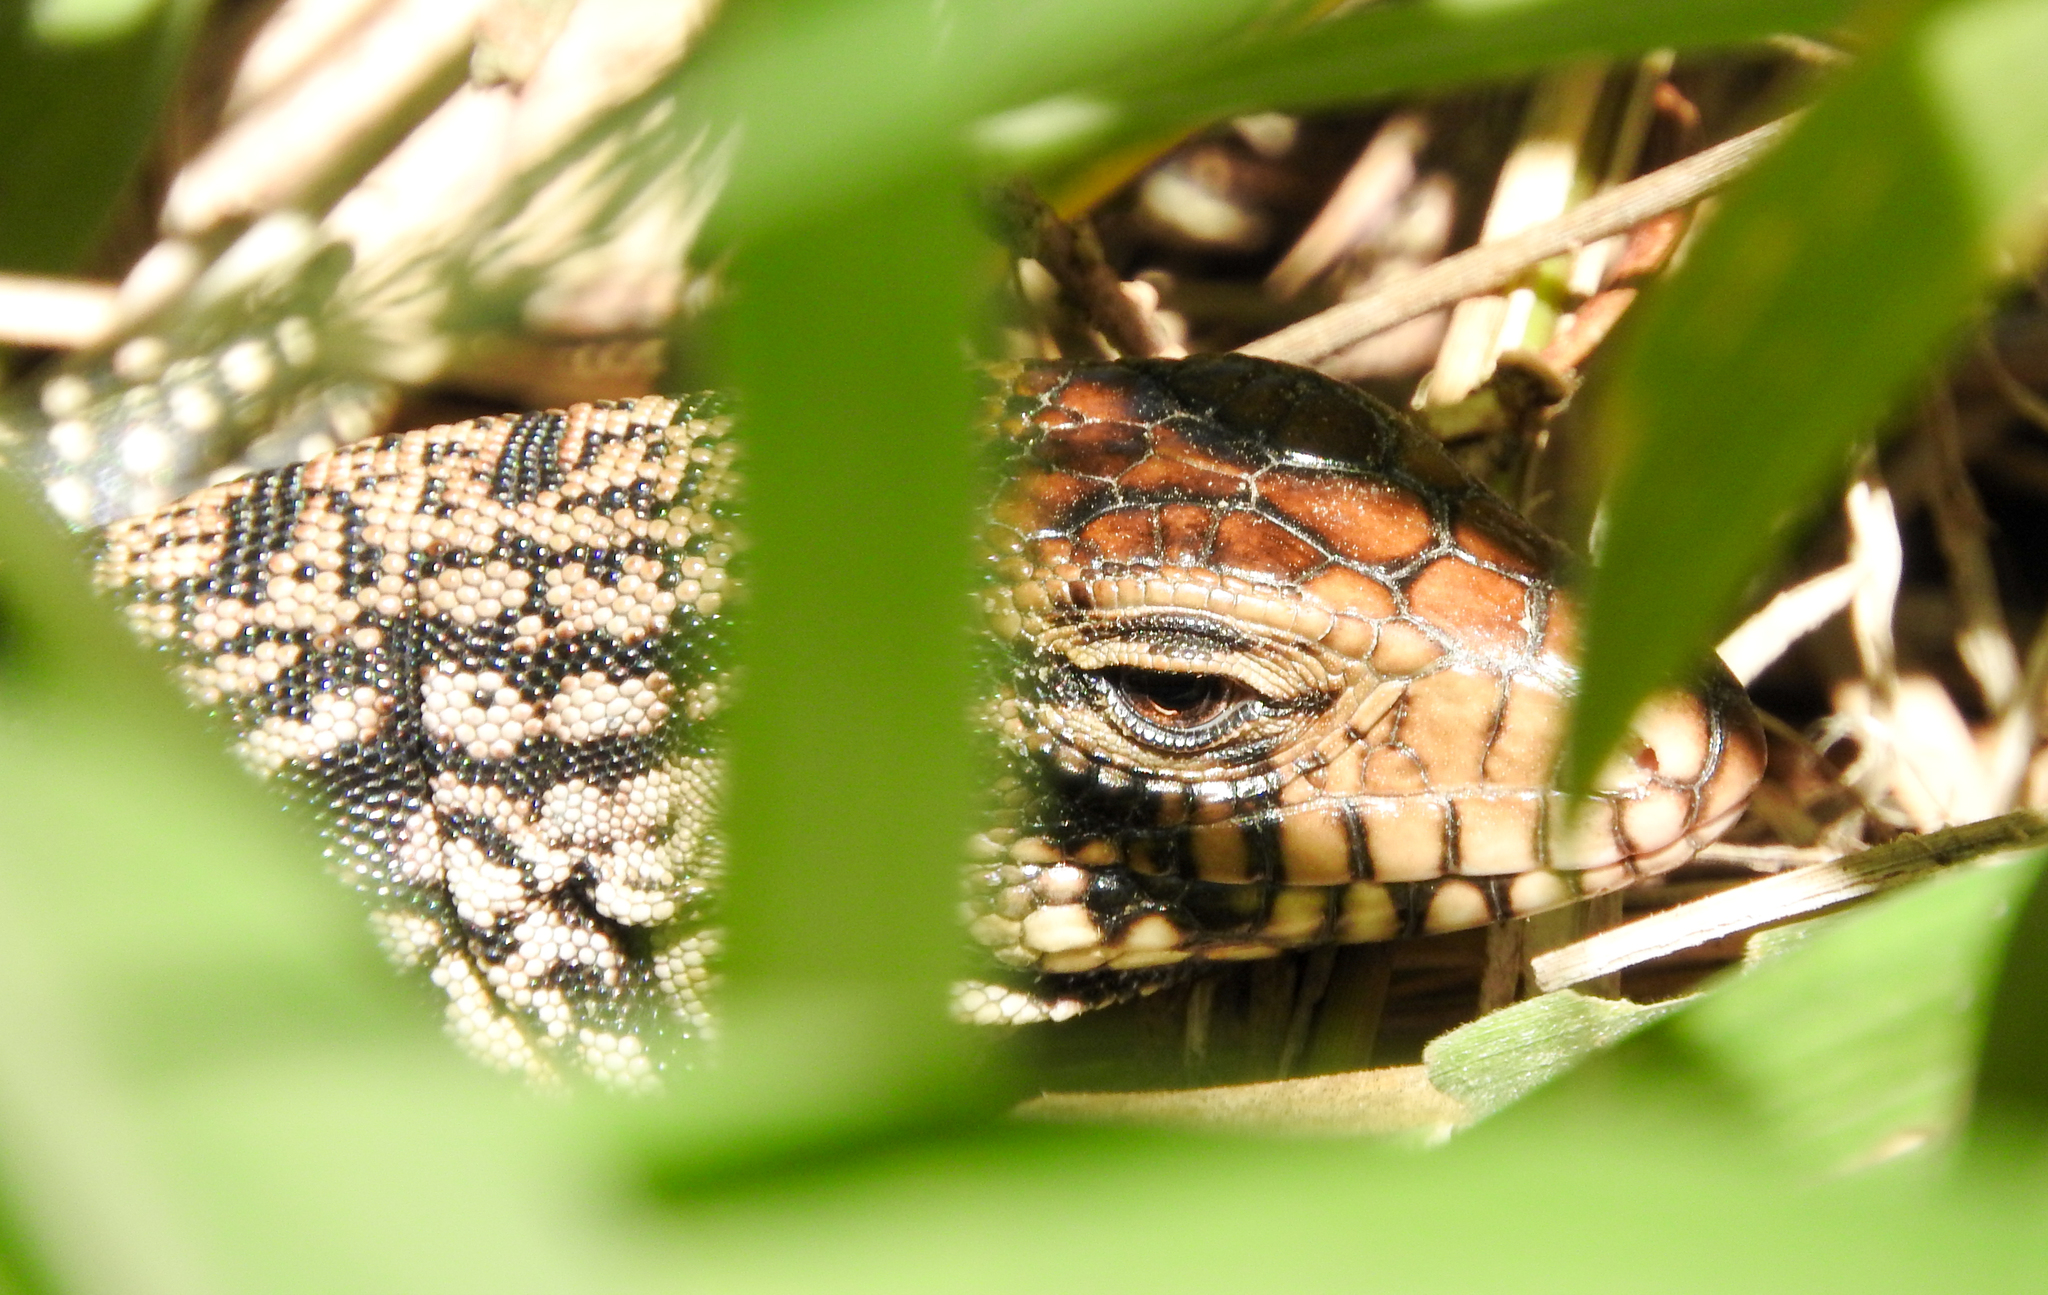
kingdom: Animalia
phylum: Chordata
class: Squamata
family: Teiidae
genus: Salvator
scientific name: Salvator merianae
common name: Argentine black and white tegu
